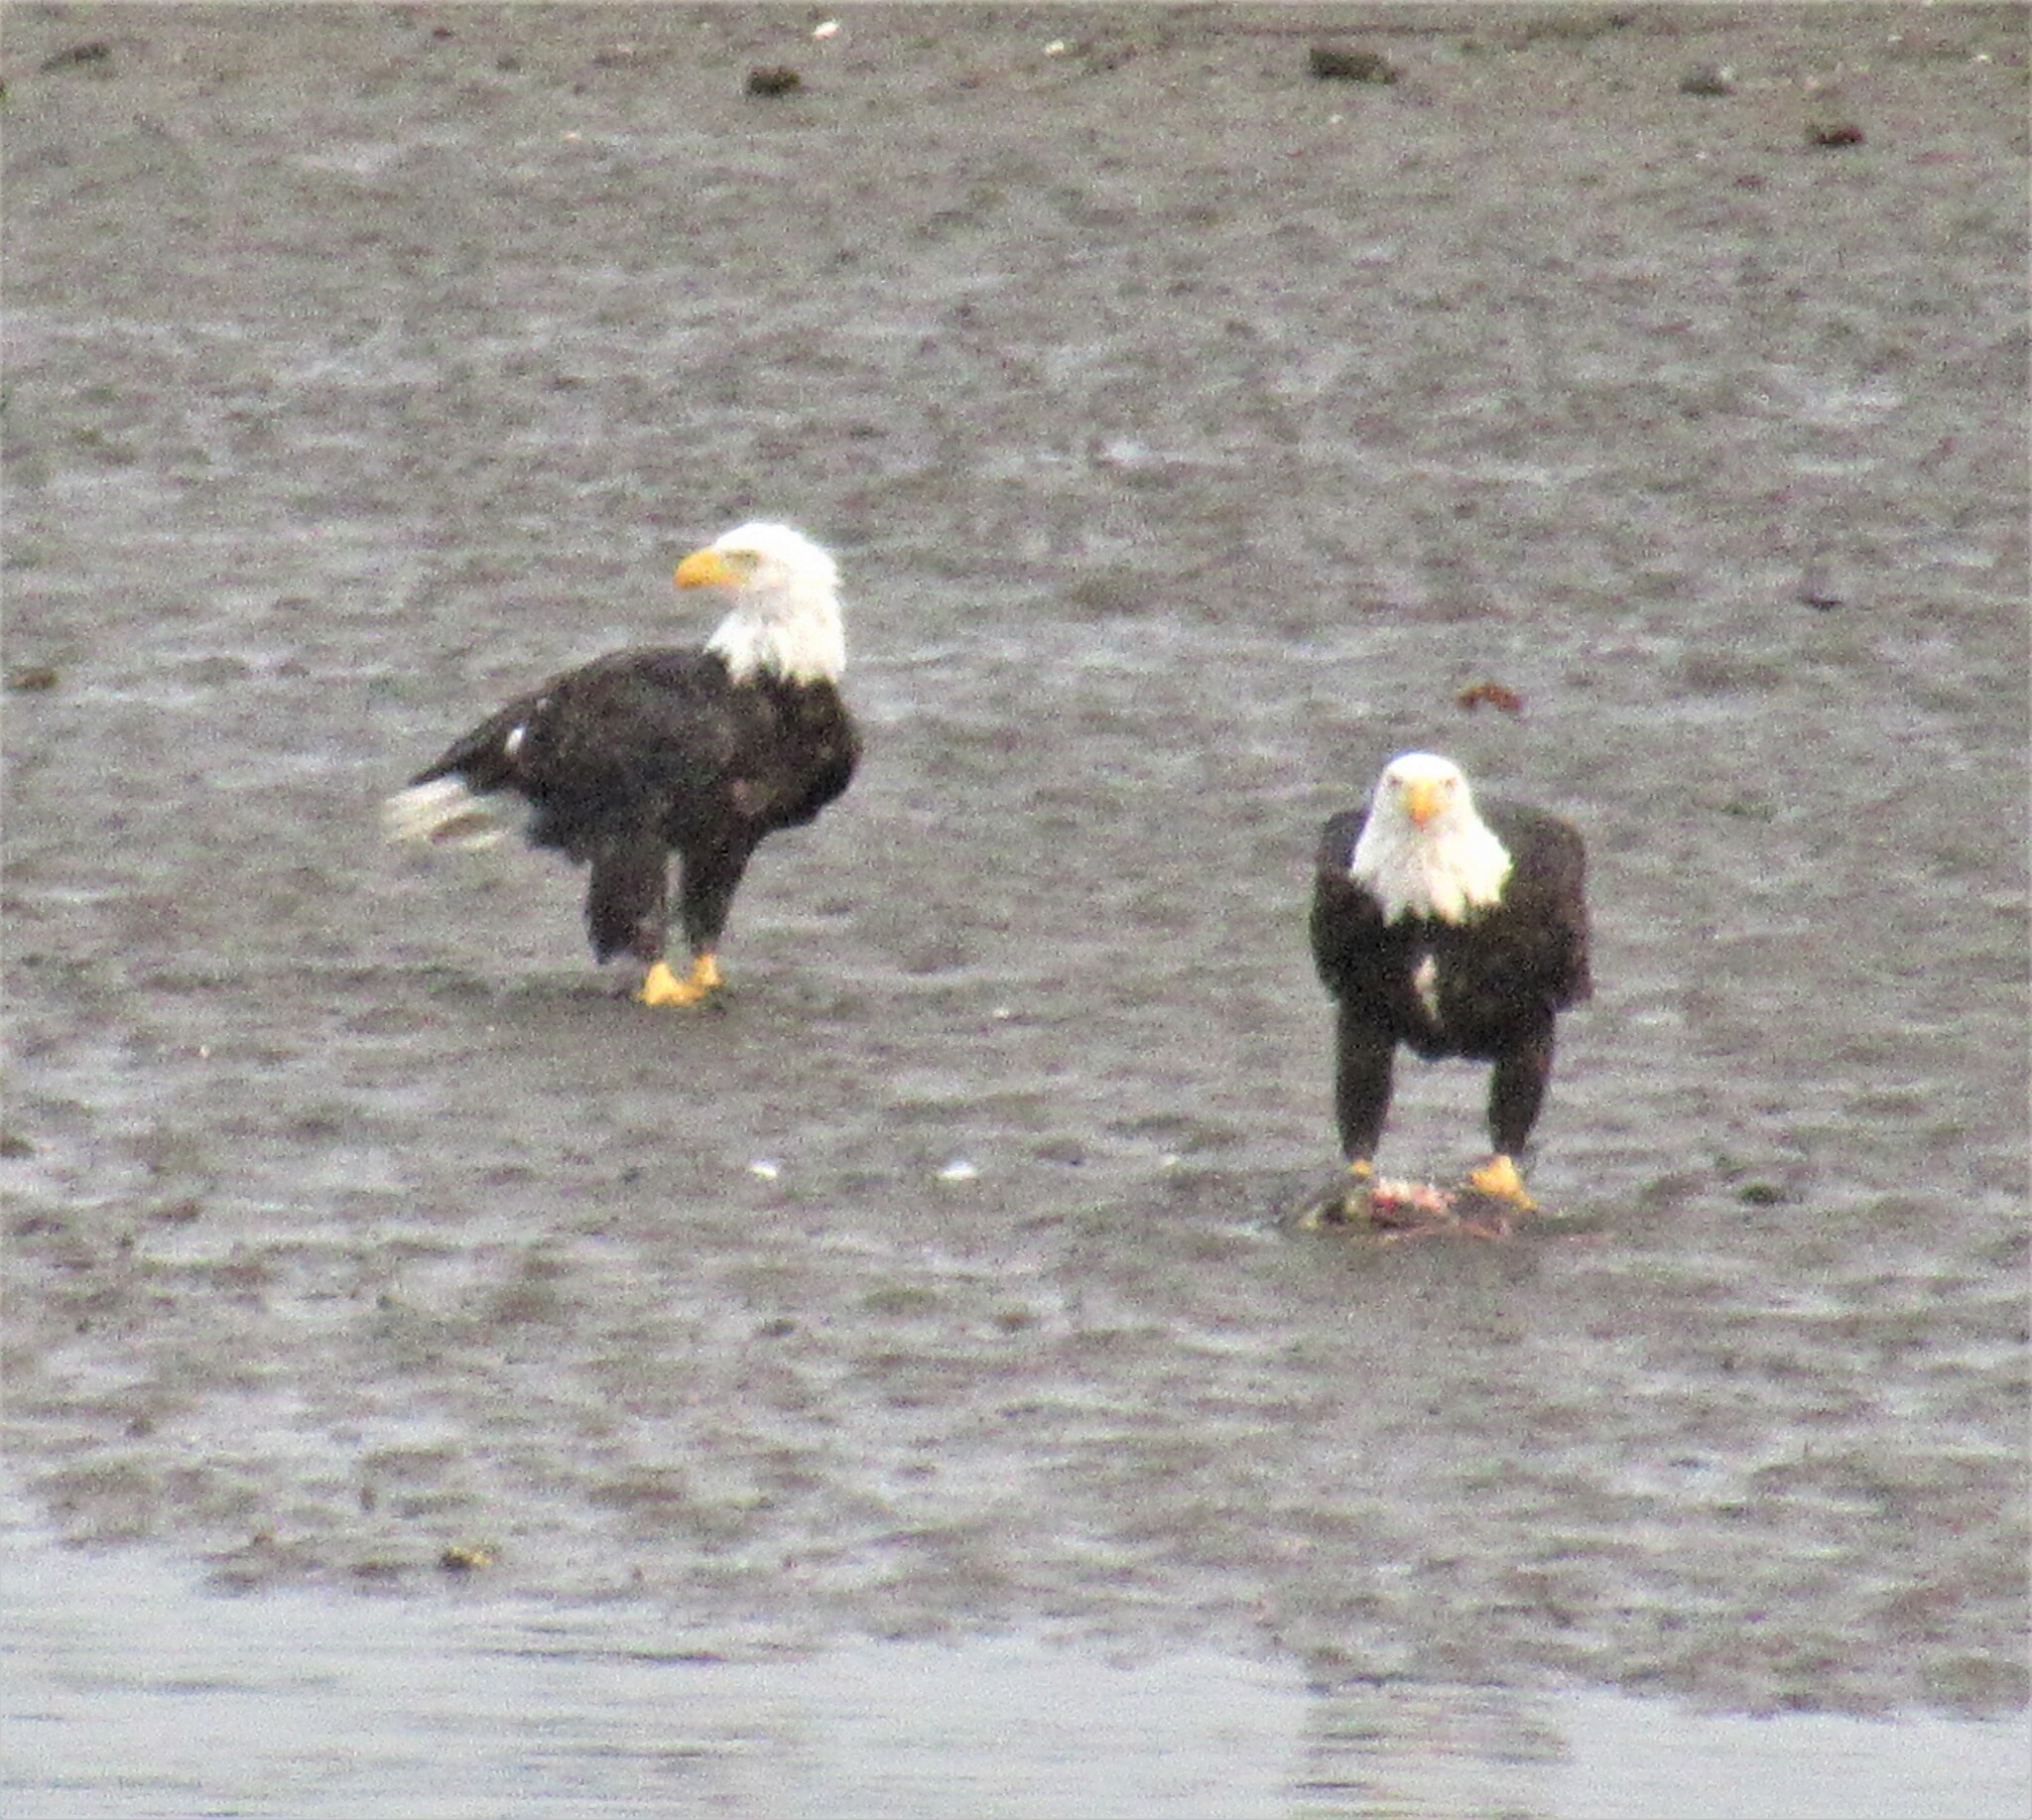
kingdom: Animalia
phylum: Chordata
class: Aves
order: Accipitriformes
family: Accipitridae
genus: Haliaeetus
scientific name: Haliaeetus leucocephalus
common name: Bald eagle
